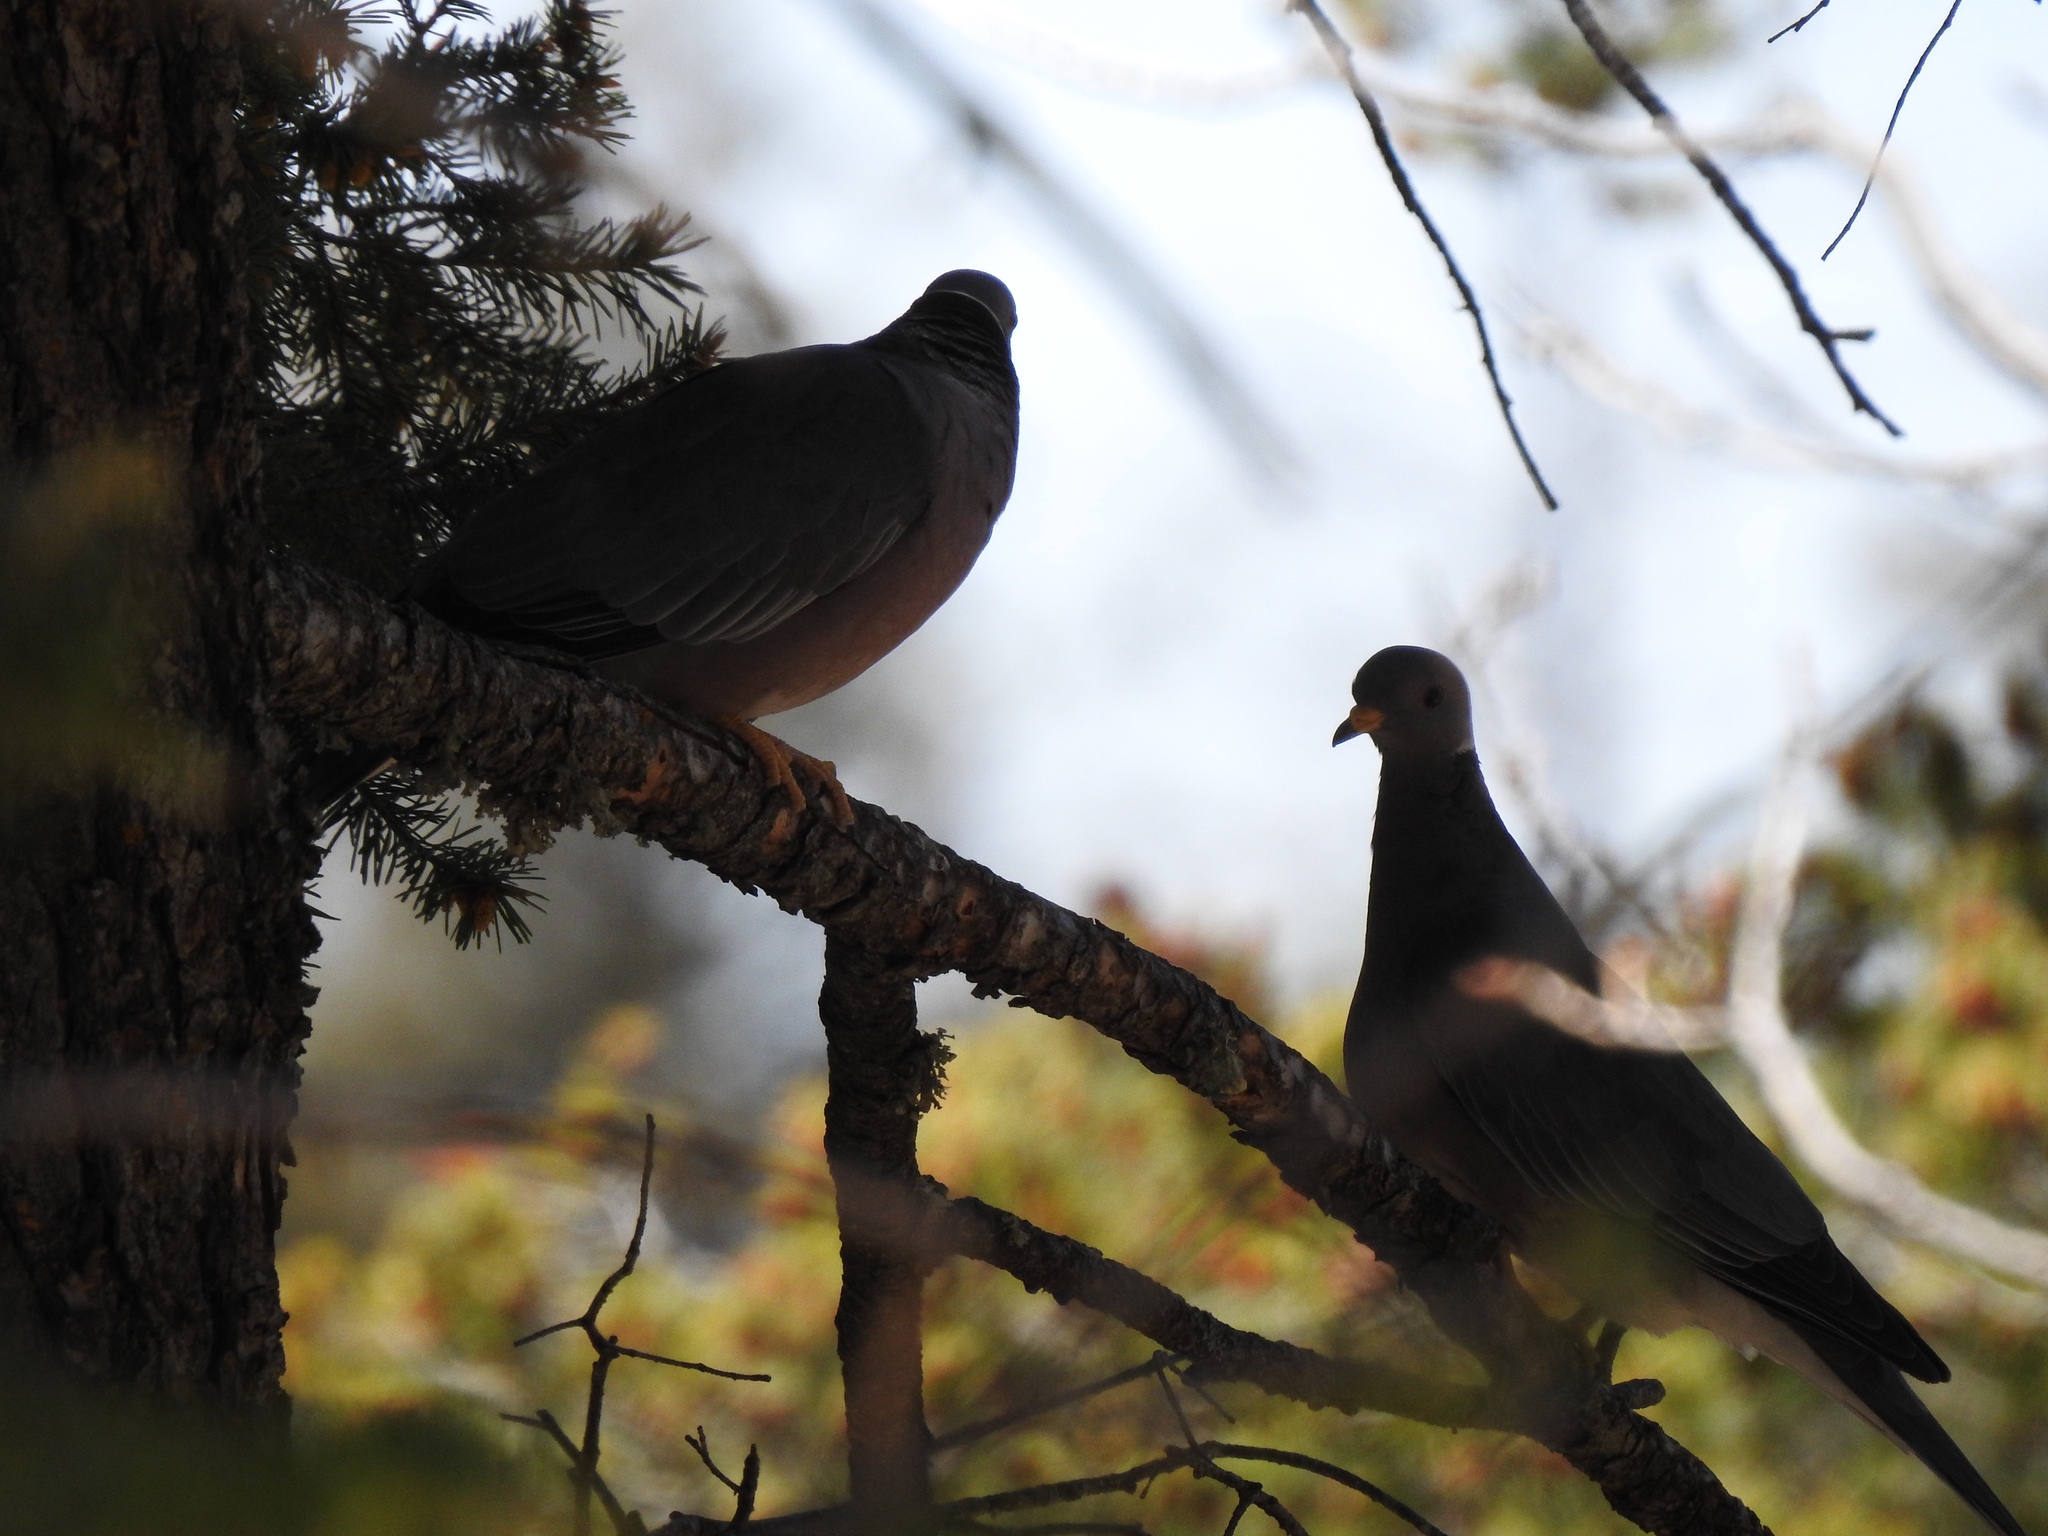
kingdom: Animalia
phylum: Chordata
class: Aves
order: Columbiformes
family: Columbidae
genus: Patagioenas
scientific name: Patagioenas fasciata
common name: Band-tailed pigeon
